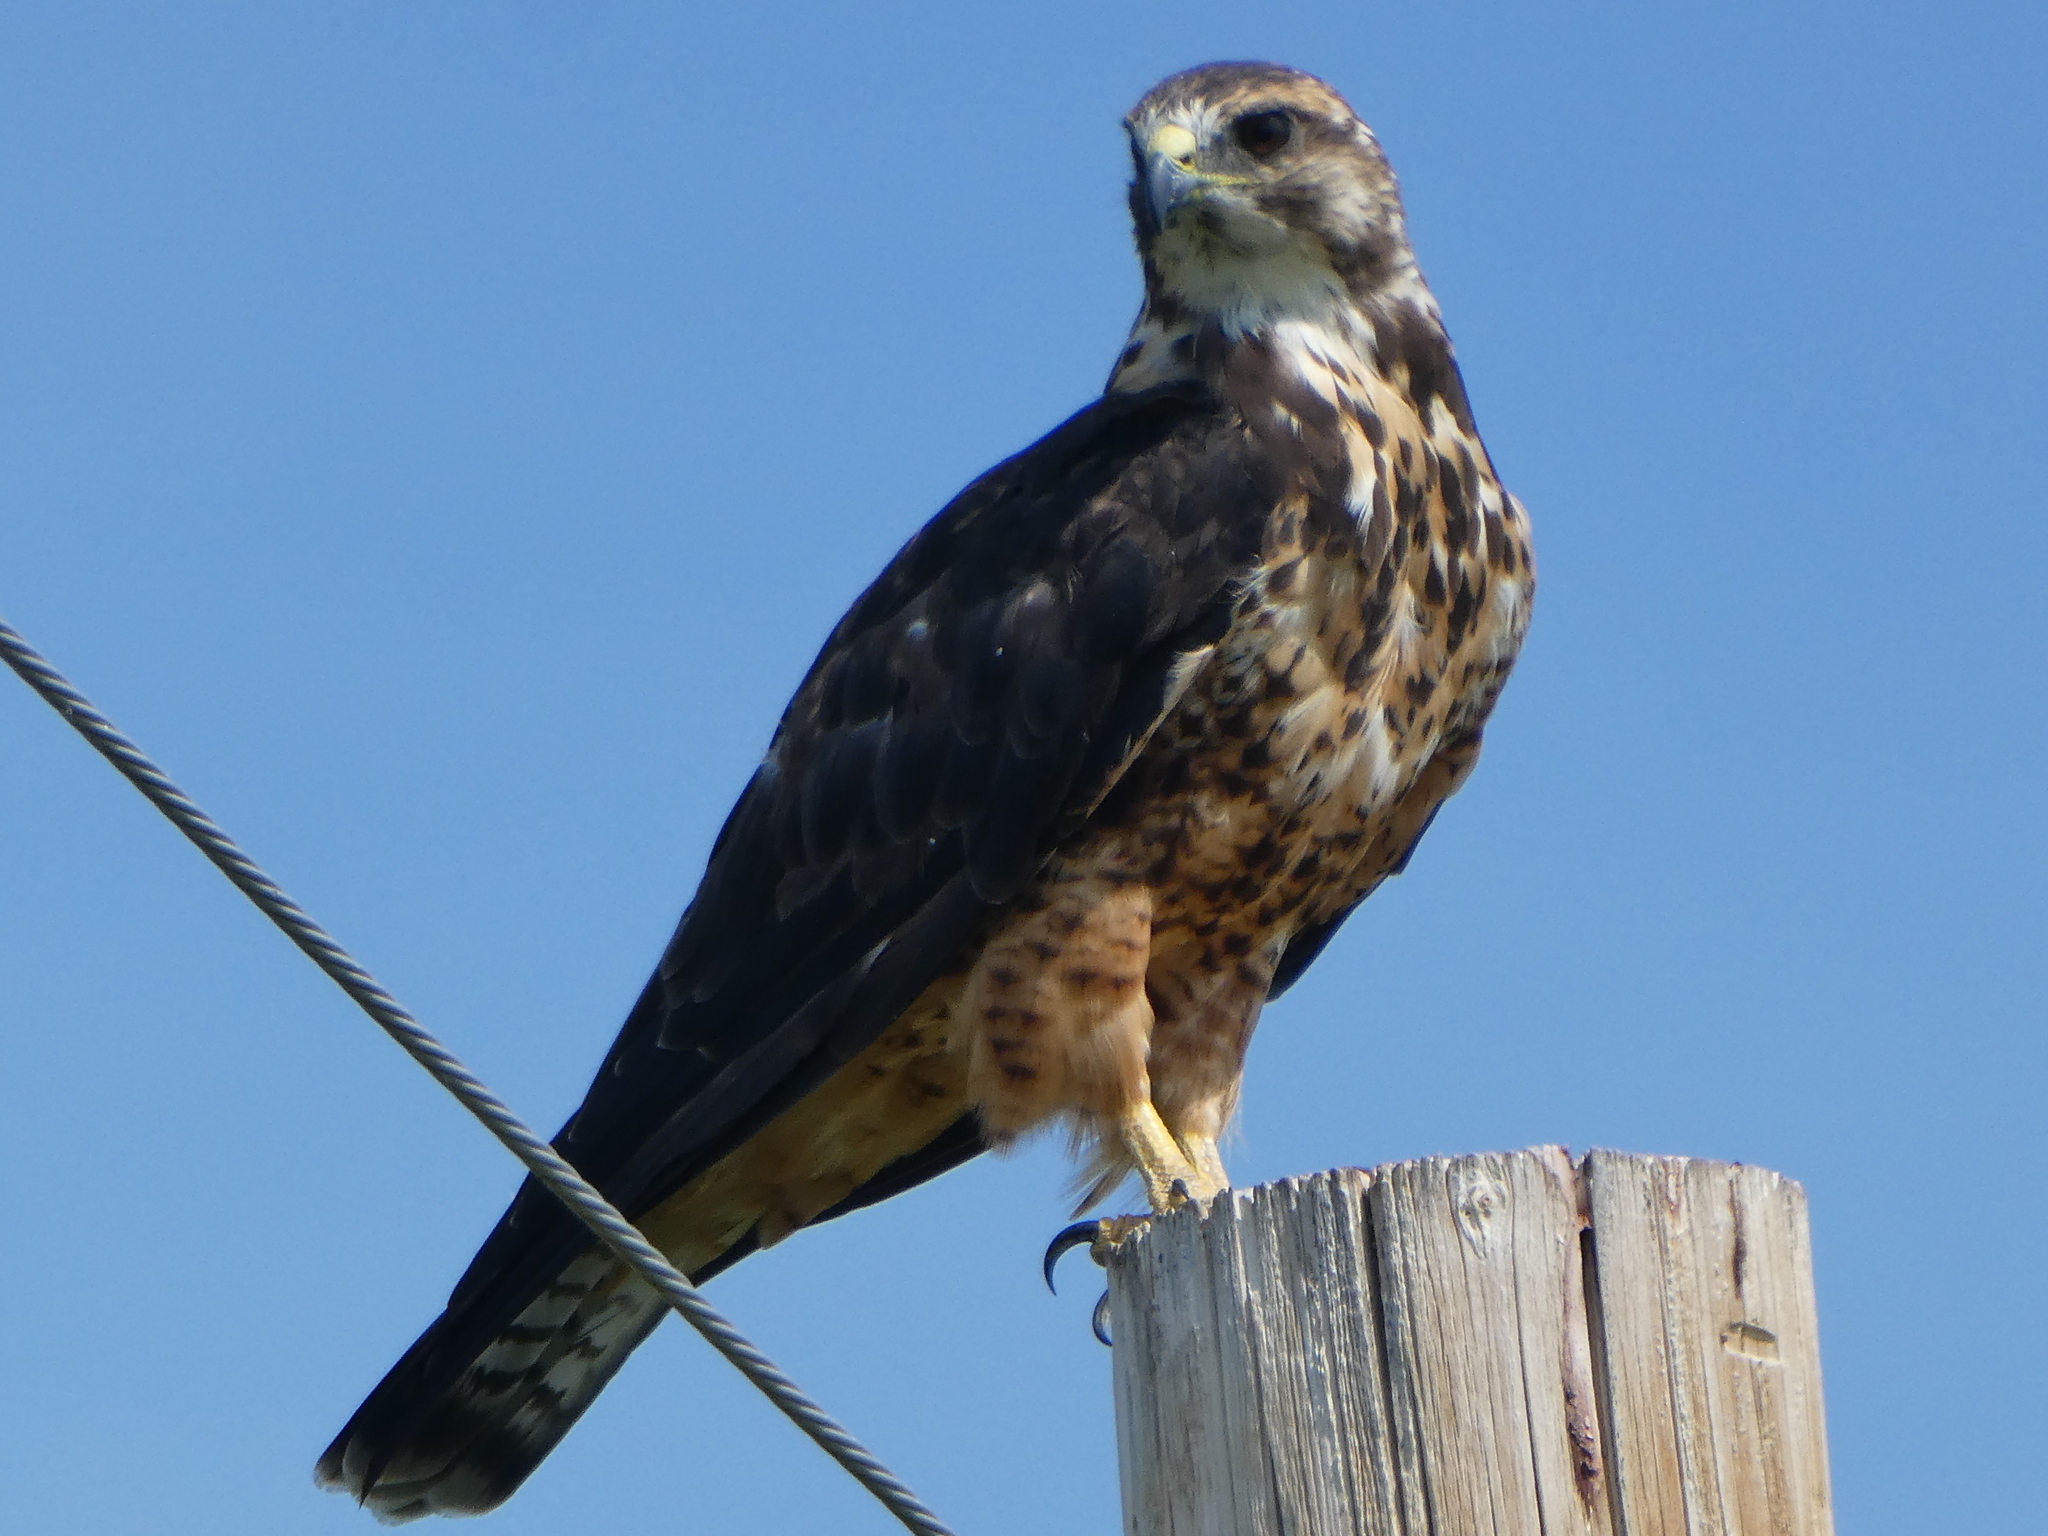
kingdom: Animalia
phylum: Chordata
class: Aves
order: Accipitriformes
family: Accipitridae
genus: Buteo
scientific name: Buteo swainsoni
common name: Swainson's hawk
